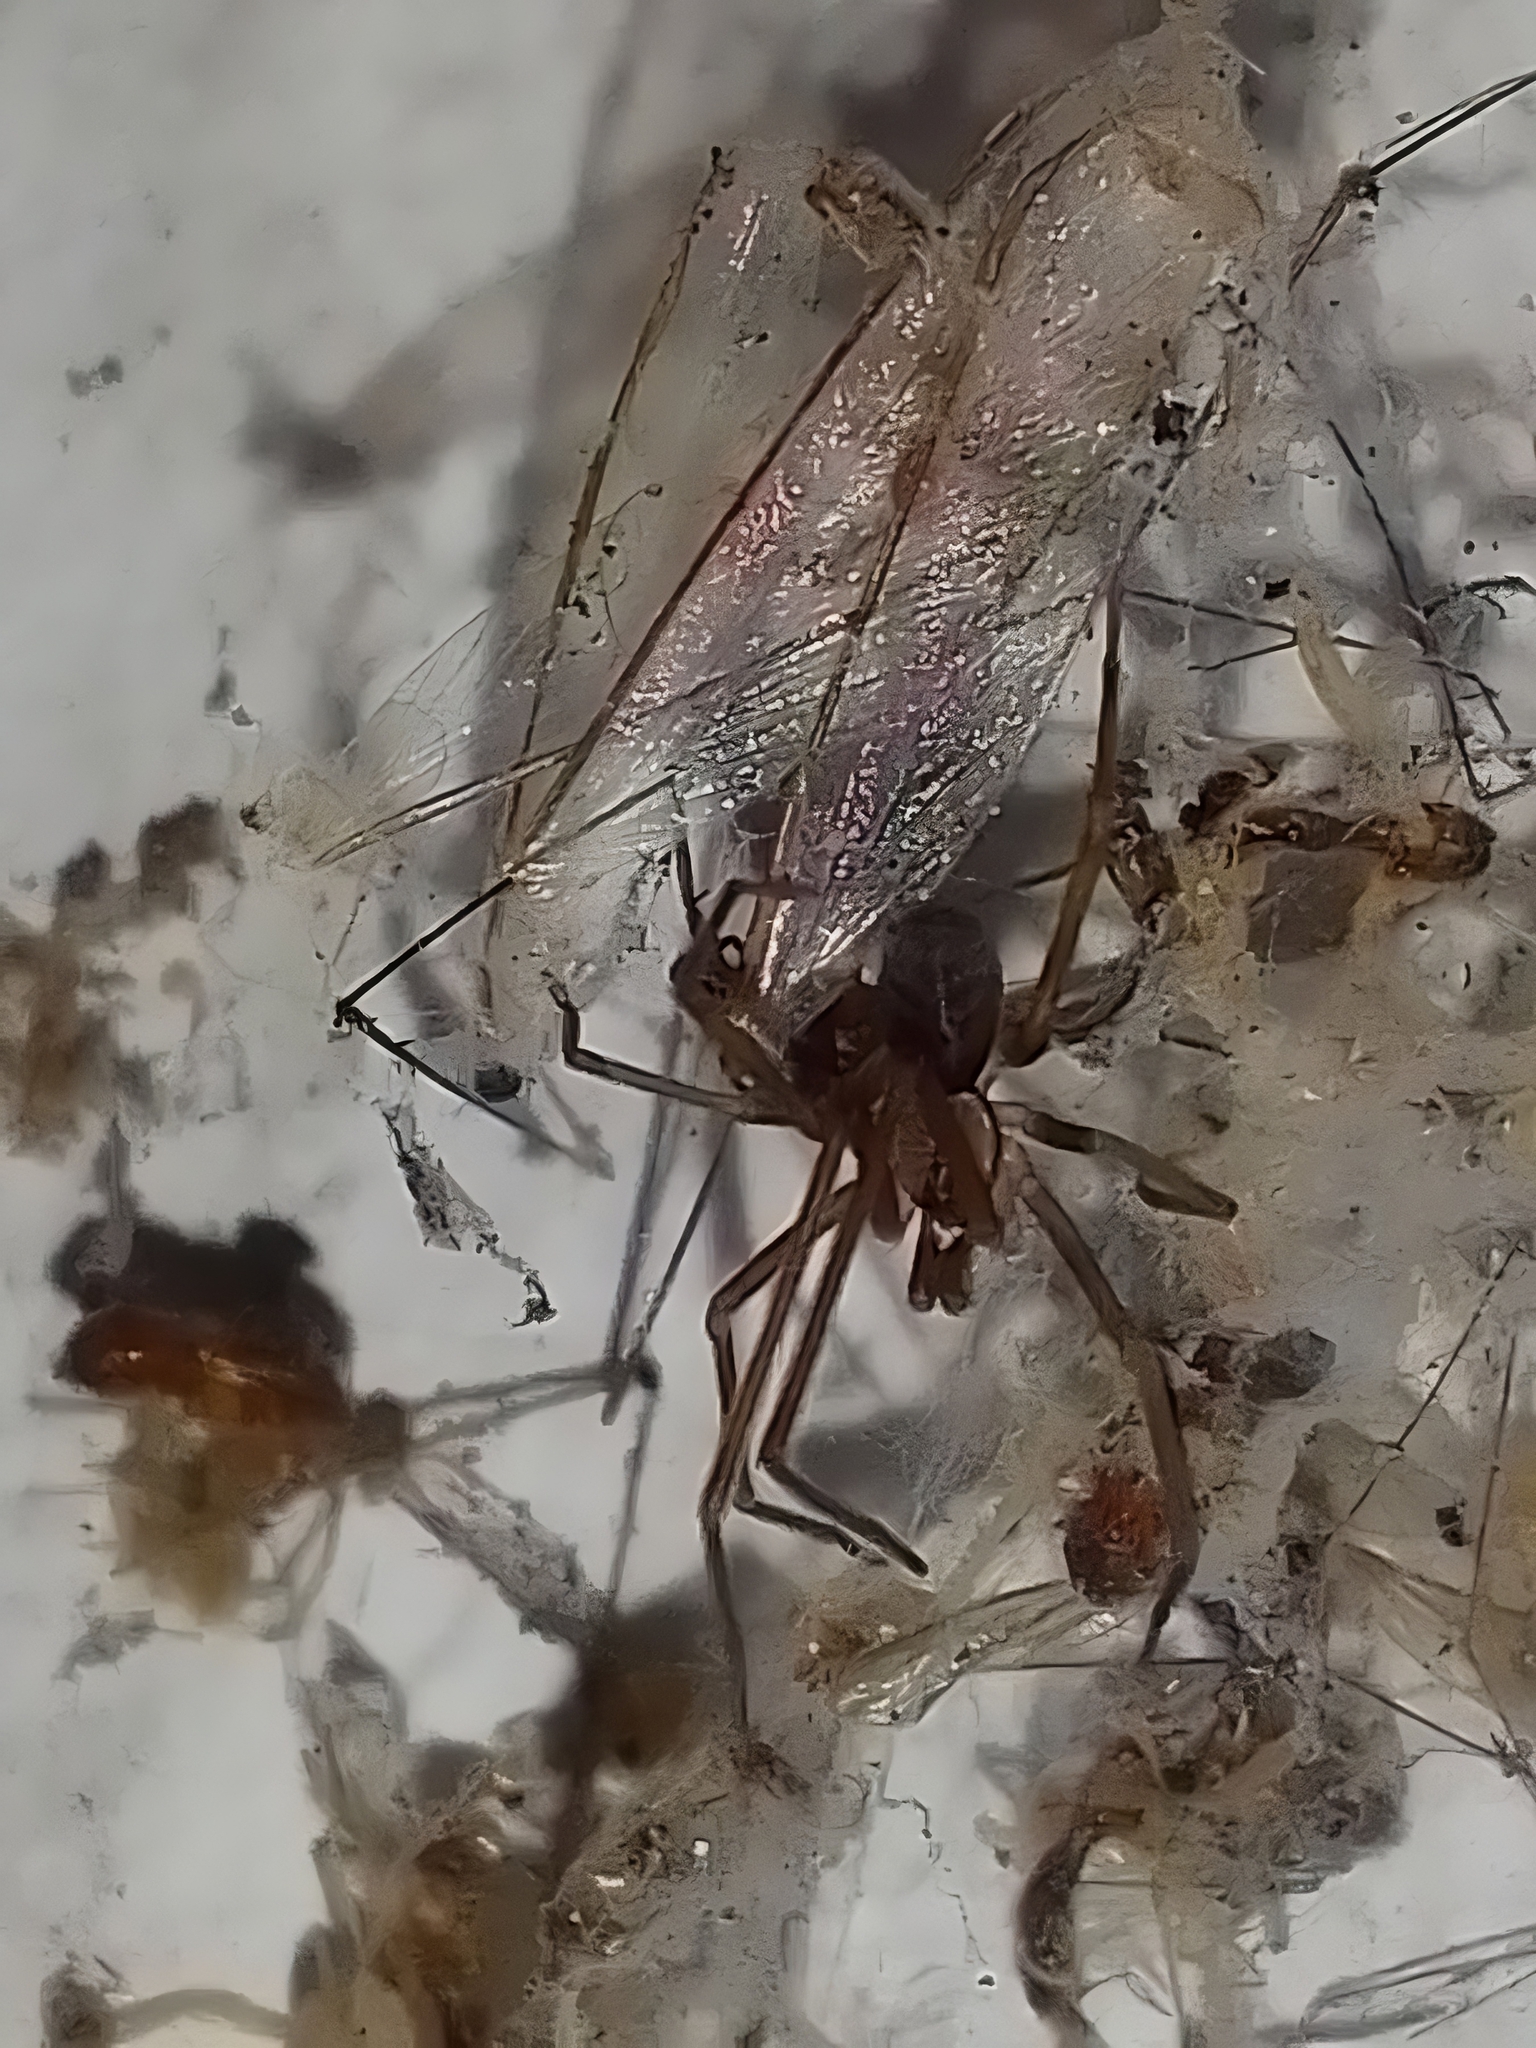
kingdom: Animalia
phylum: Arthropoda
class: Arachnida
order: Araneae
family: Filistatidae
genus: Pikelinia
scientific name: Pikelinia
